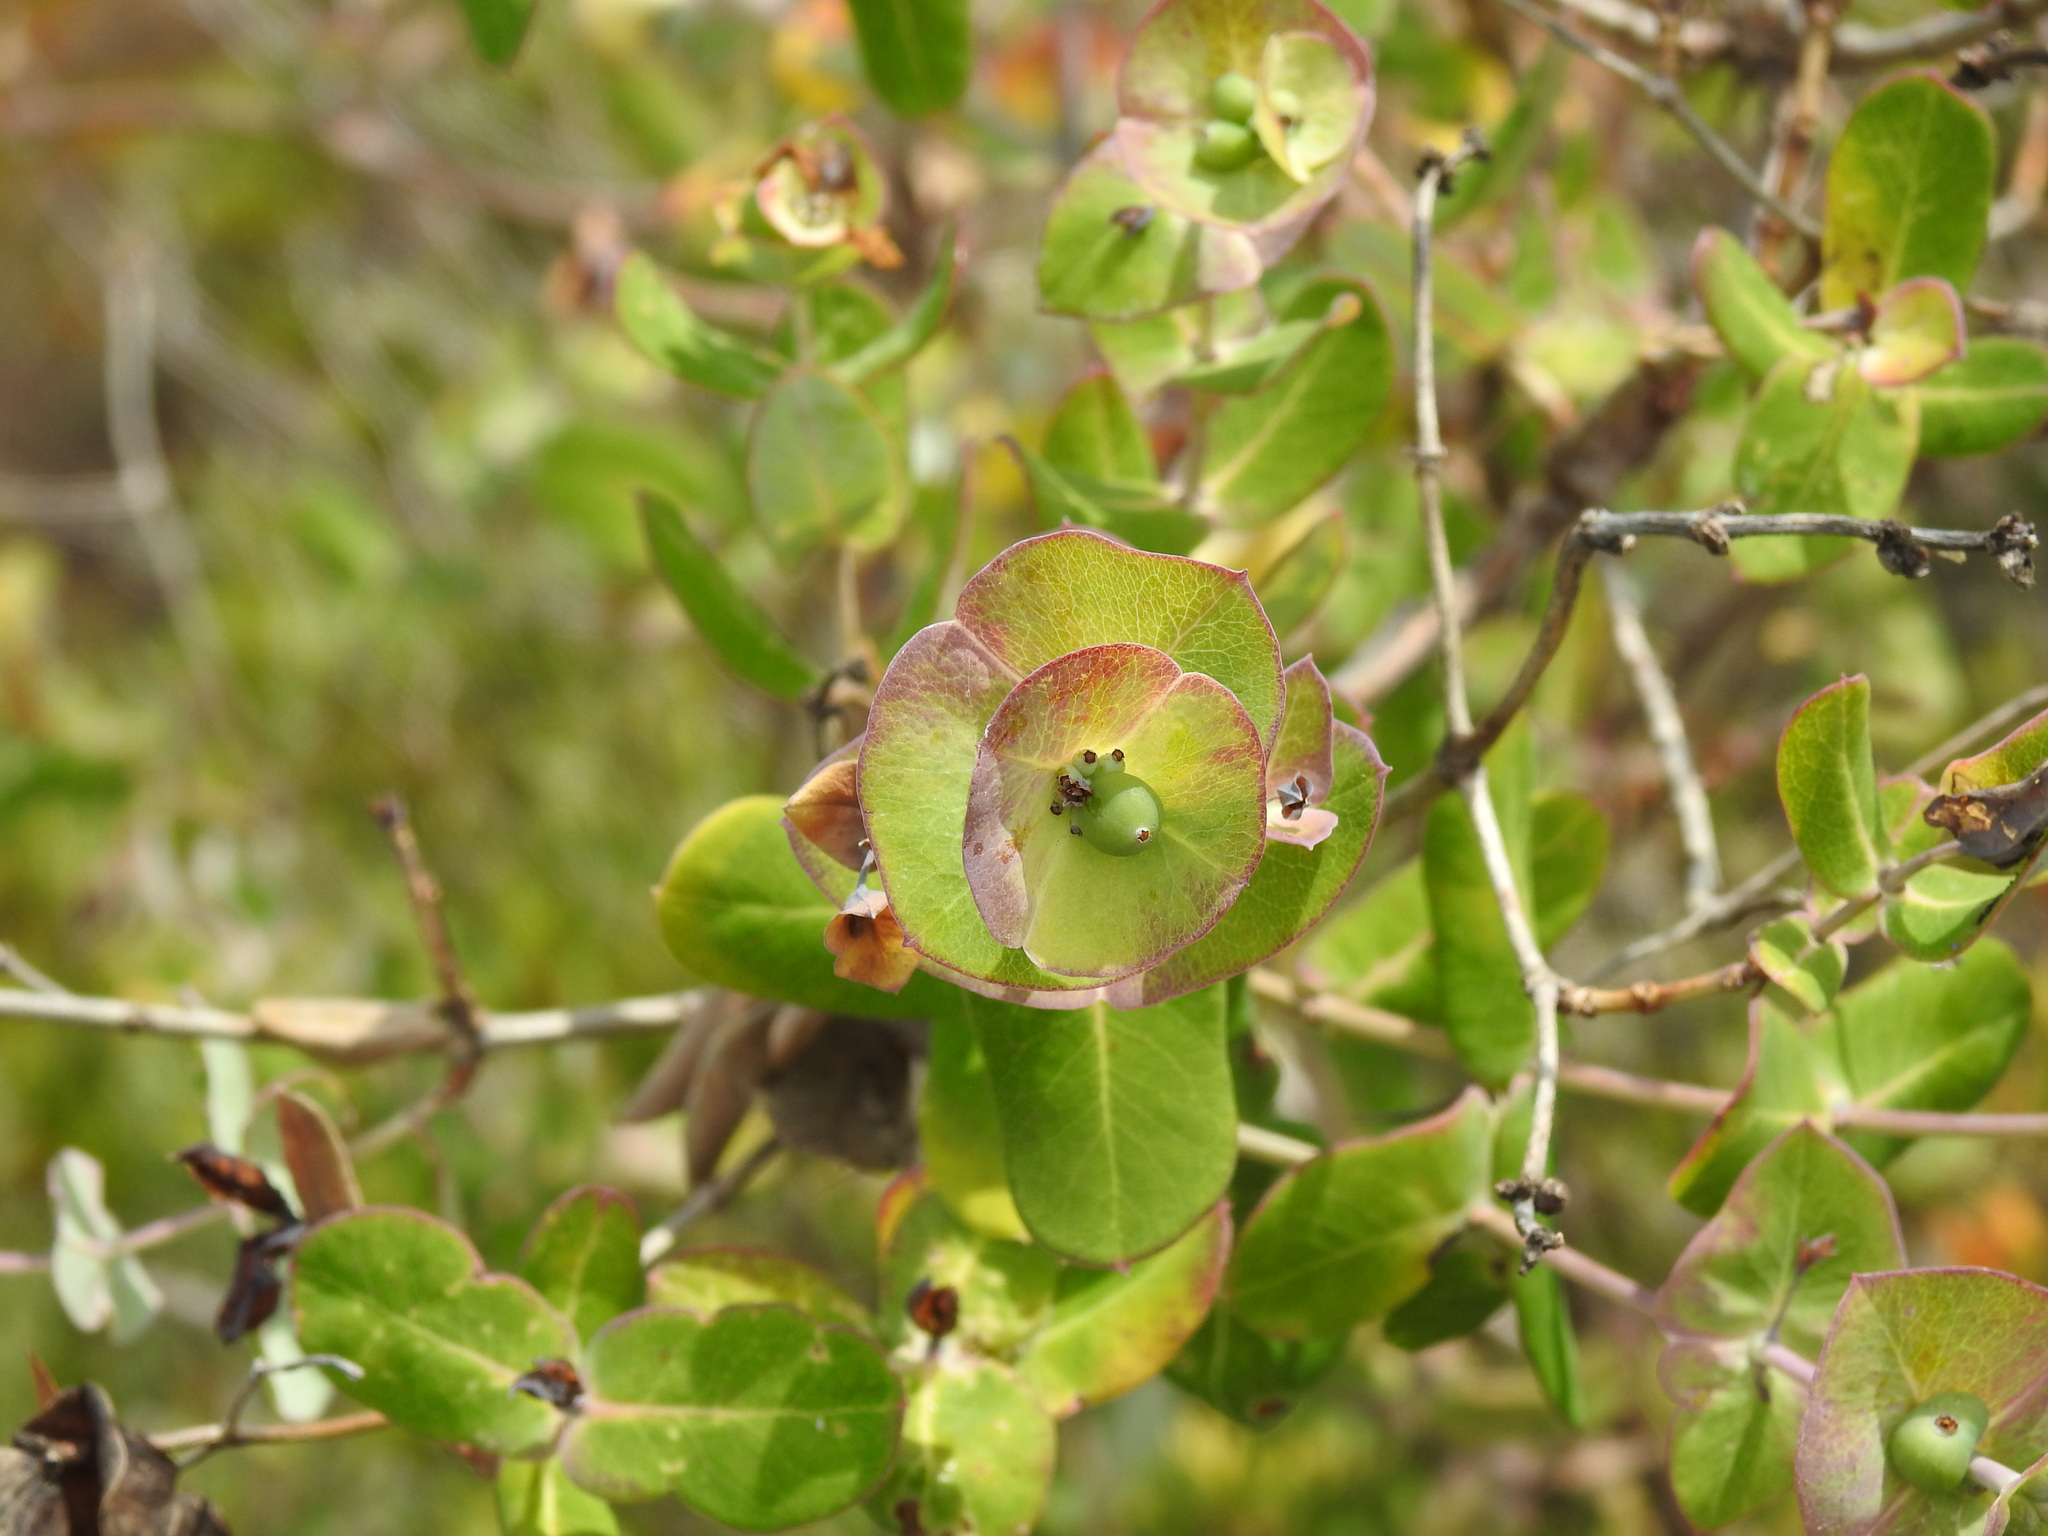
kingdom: Plantae
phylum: Tracheophyta
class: Magnoliopsida
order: Dipsacales
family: Caprifoliaceae
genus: Lonicera
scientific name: Lonicera implexa
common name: Minorca honeysuckle
